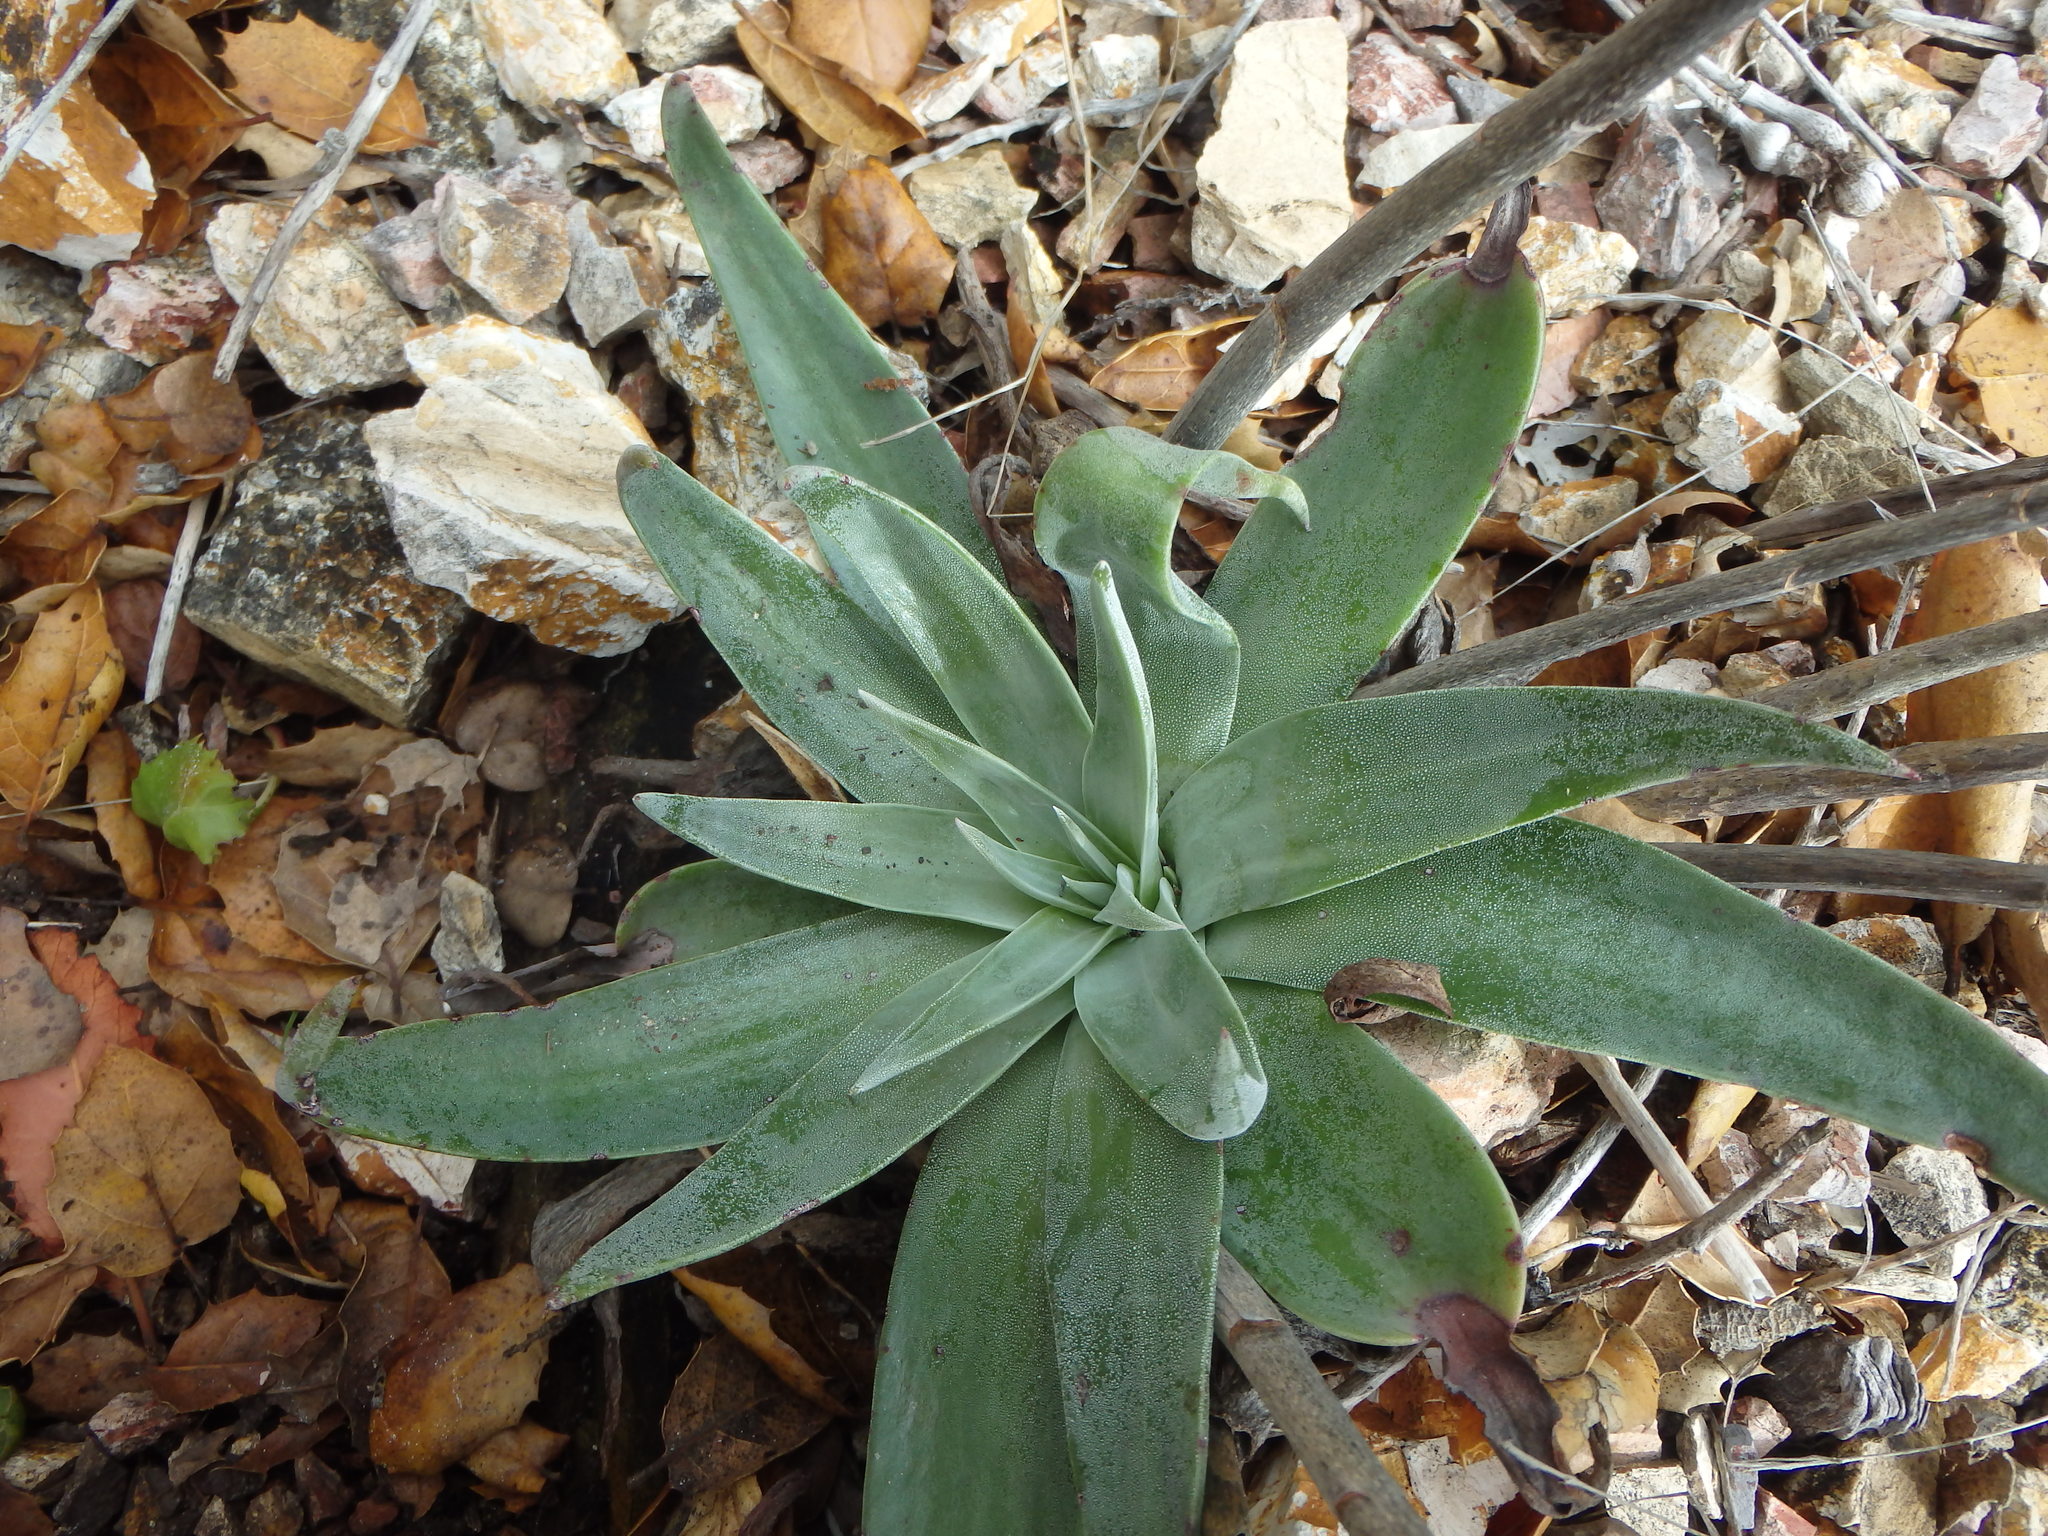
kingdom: Plantae
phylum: Tracheophyta
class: Magnoliopsida
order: Saxifragales
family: Crassulaceae
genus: Dudleya
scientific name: Dudleya lanceolata
